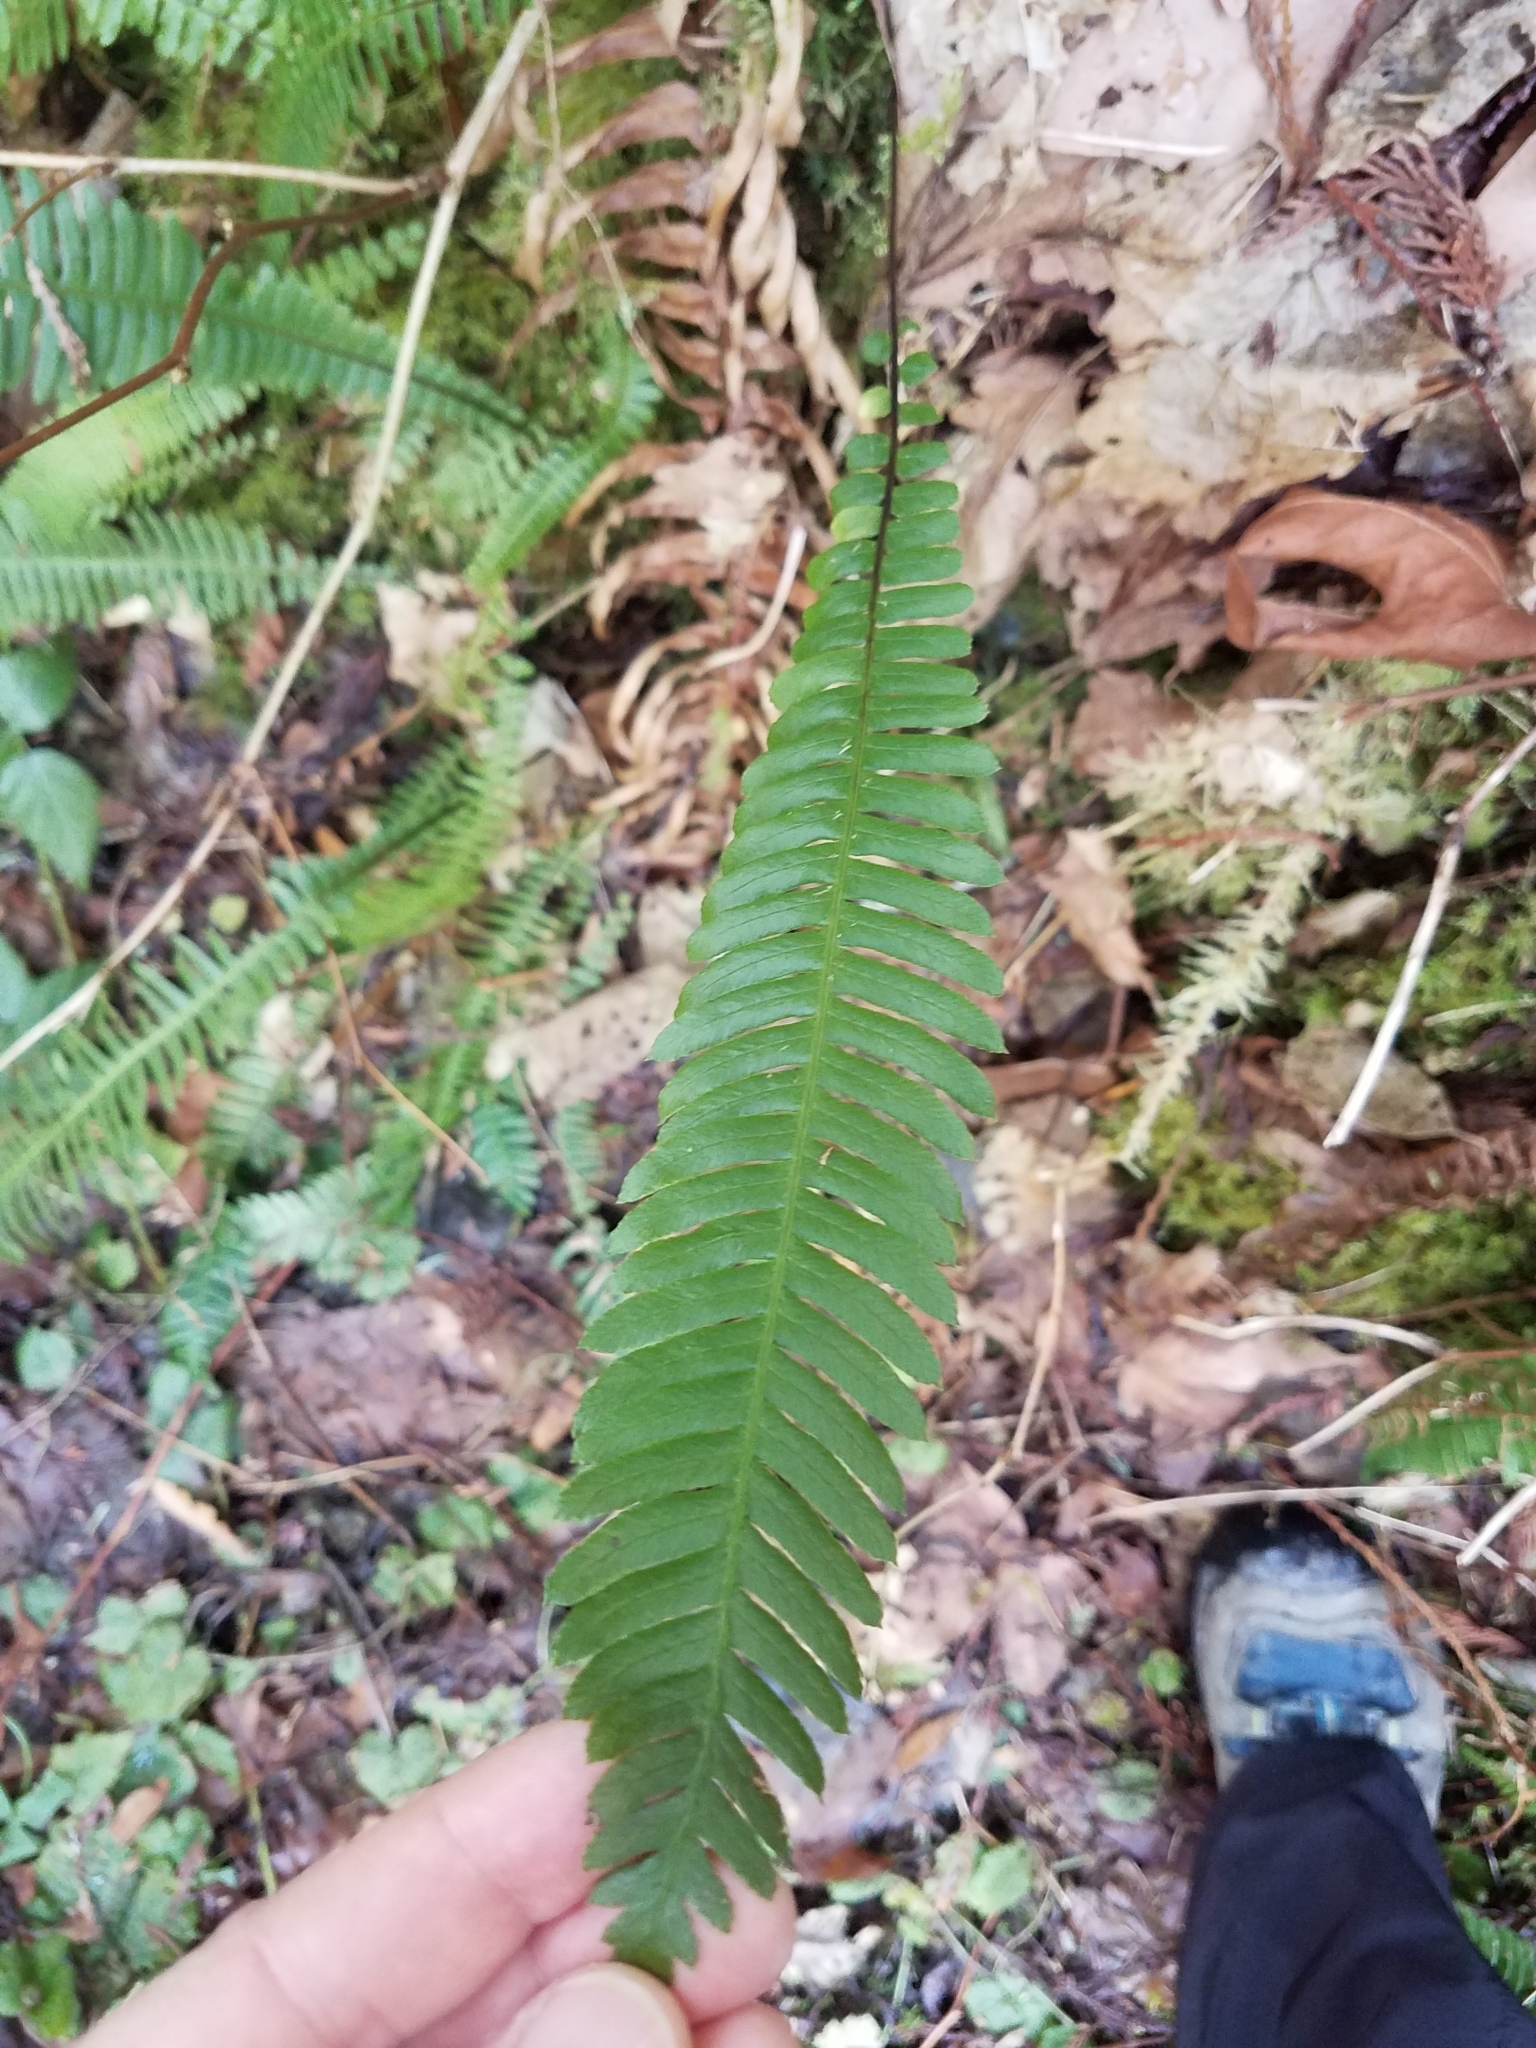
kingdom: Plantae
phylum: Tracheophyta
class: Polypodiopsida
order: Polypodiales
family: Blechnaceae
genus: Struthiopteris
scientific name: Struthiopteris spicant
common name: Deer fern
